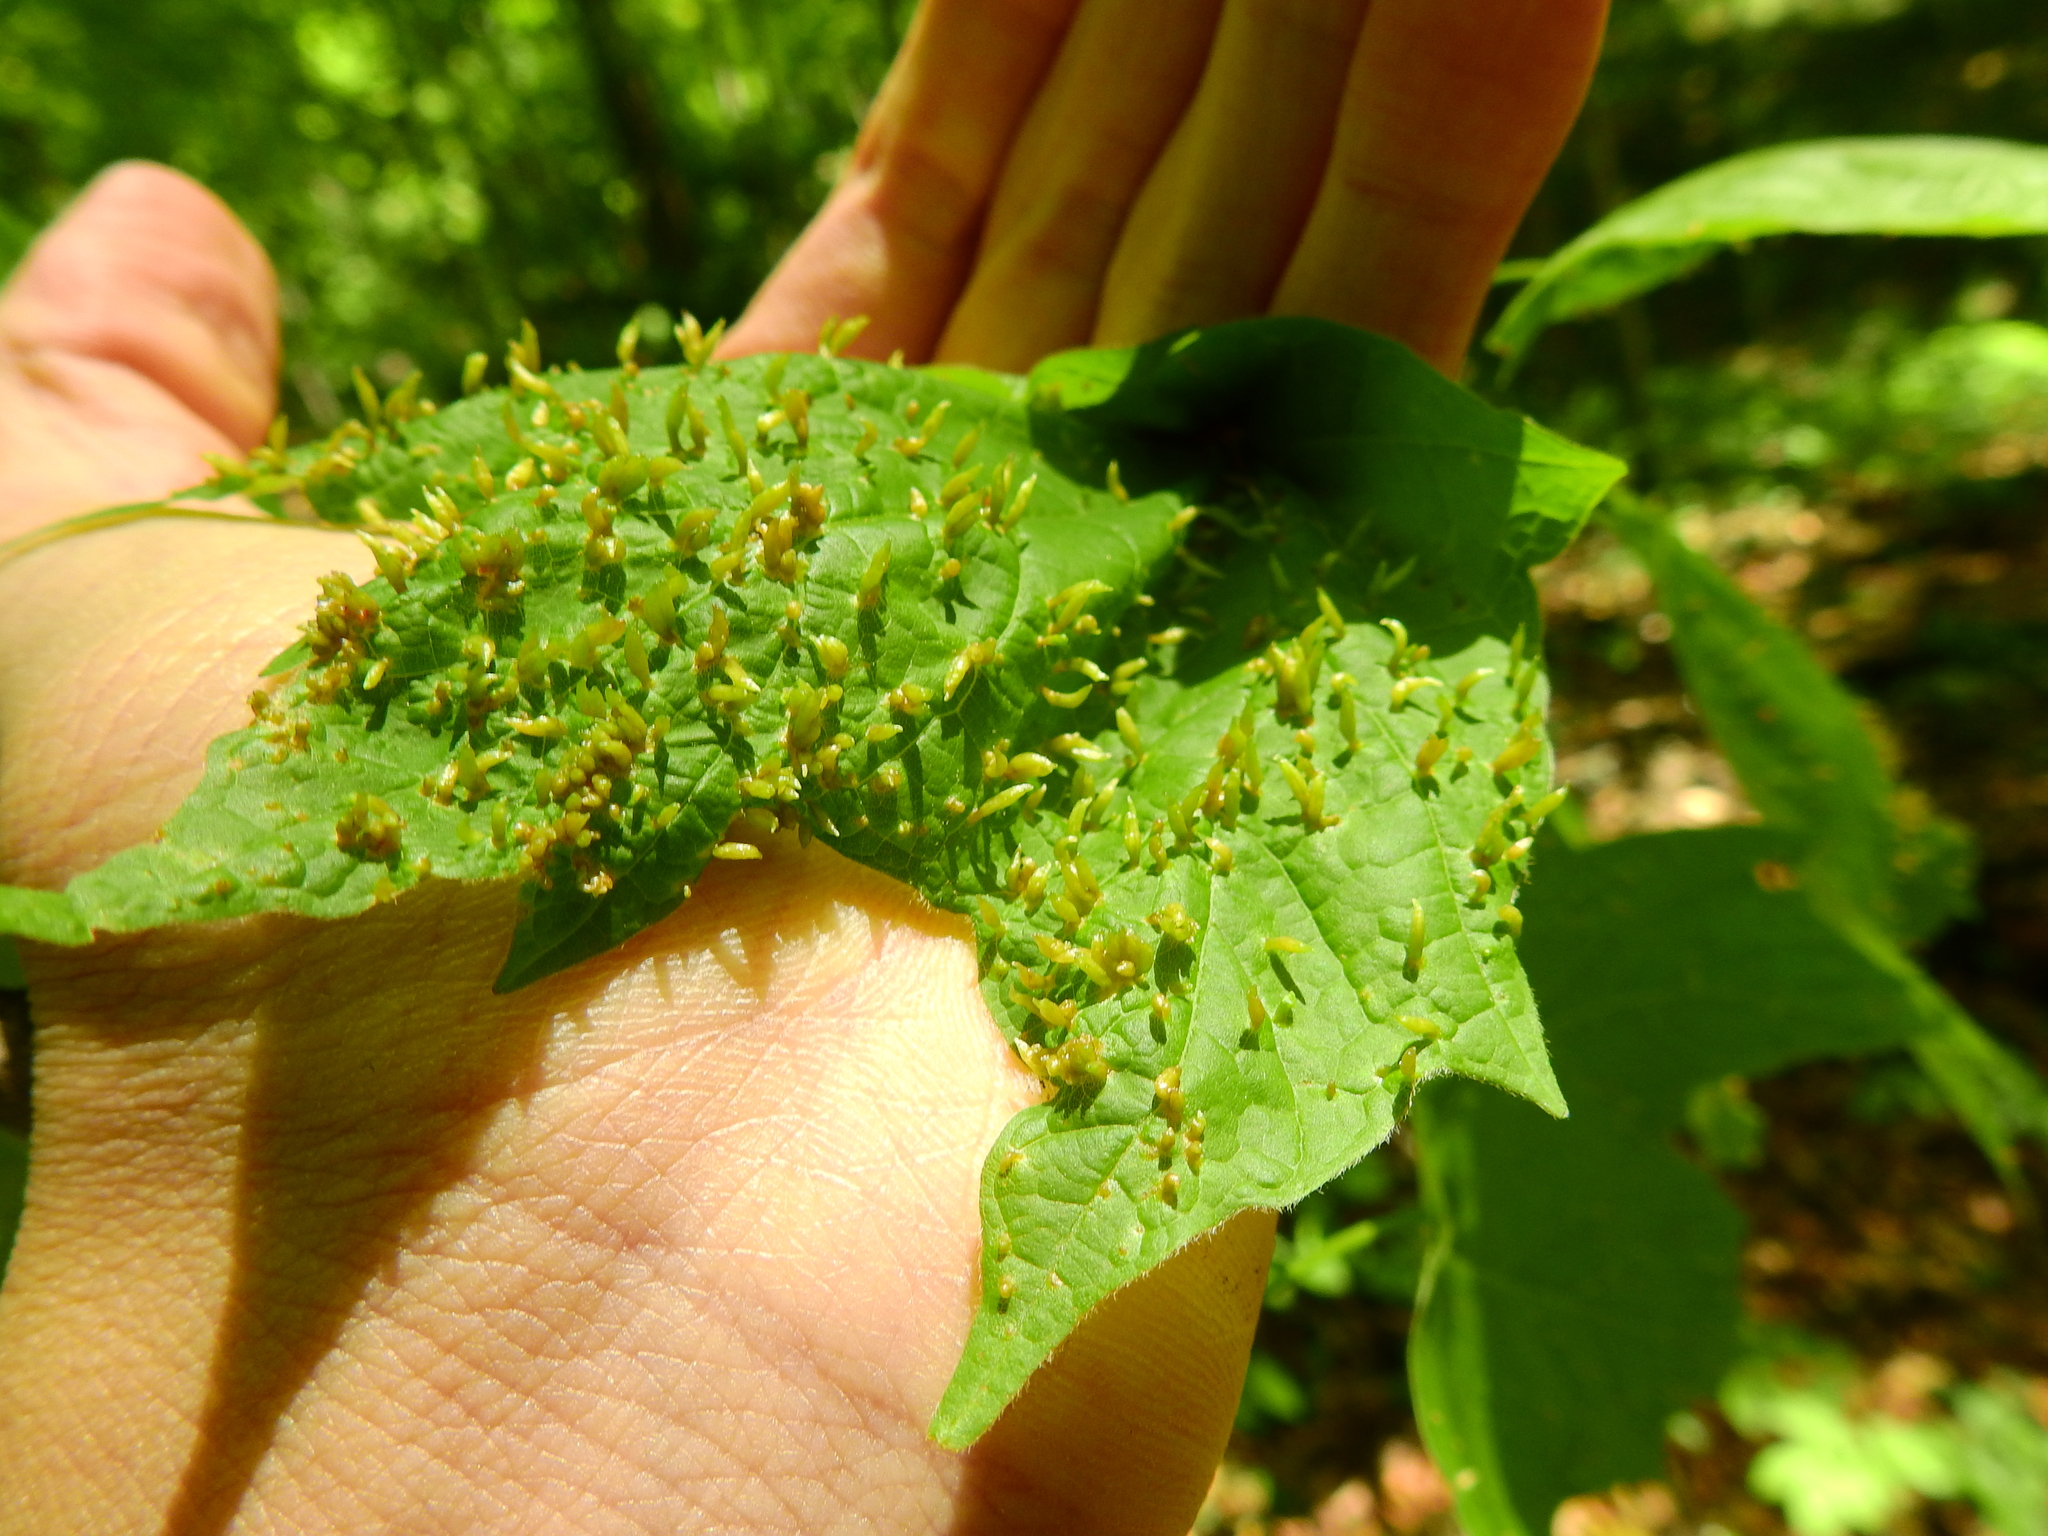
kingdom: Animalia
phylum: Arthropoda
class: Arachnida
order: Trombidiformes
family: Eriophyidae
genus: Vasates
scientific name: Vasates aceriscrumena
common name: Maple spindle gall mite
